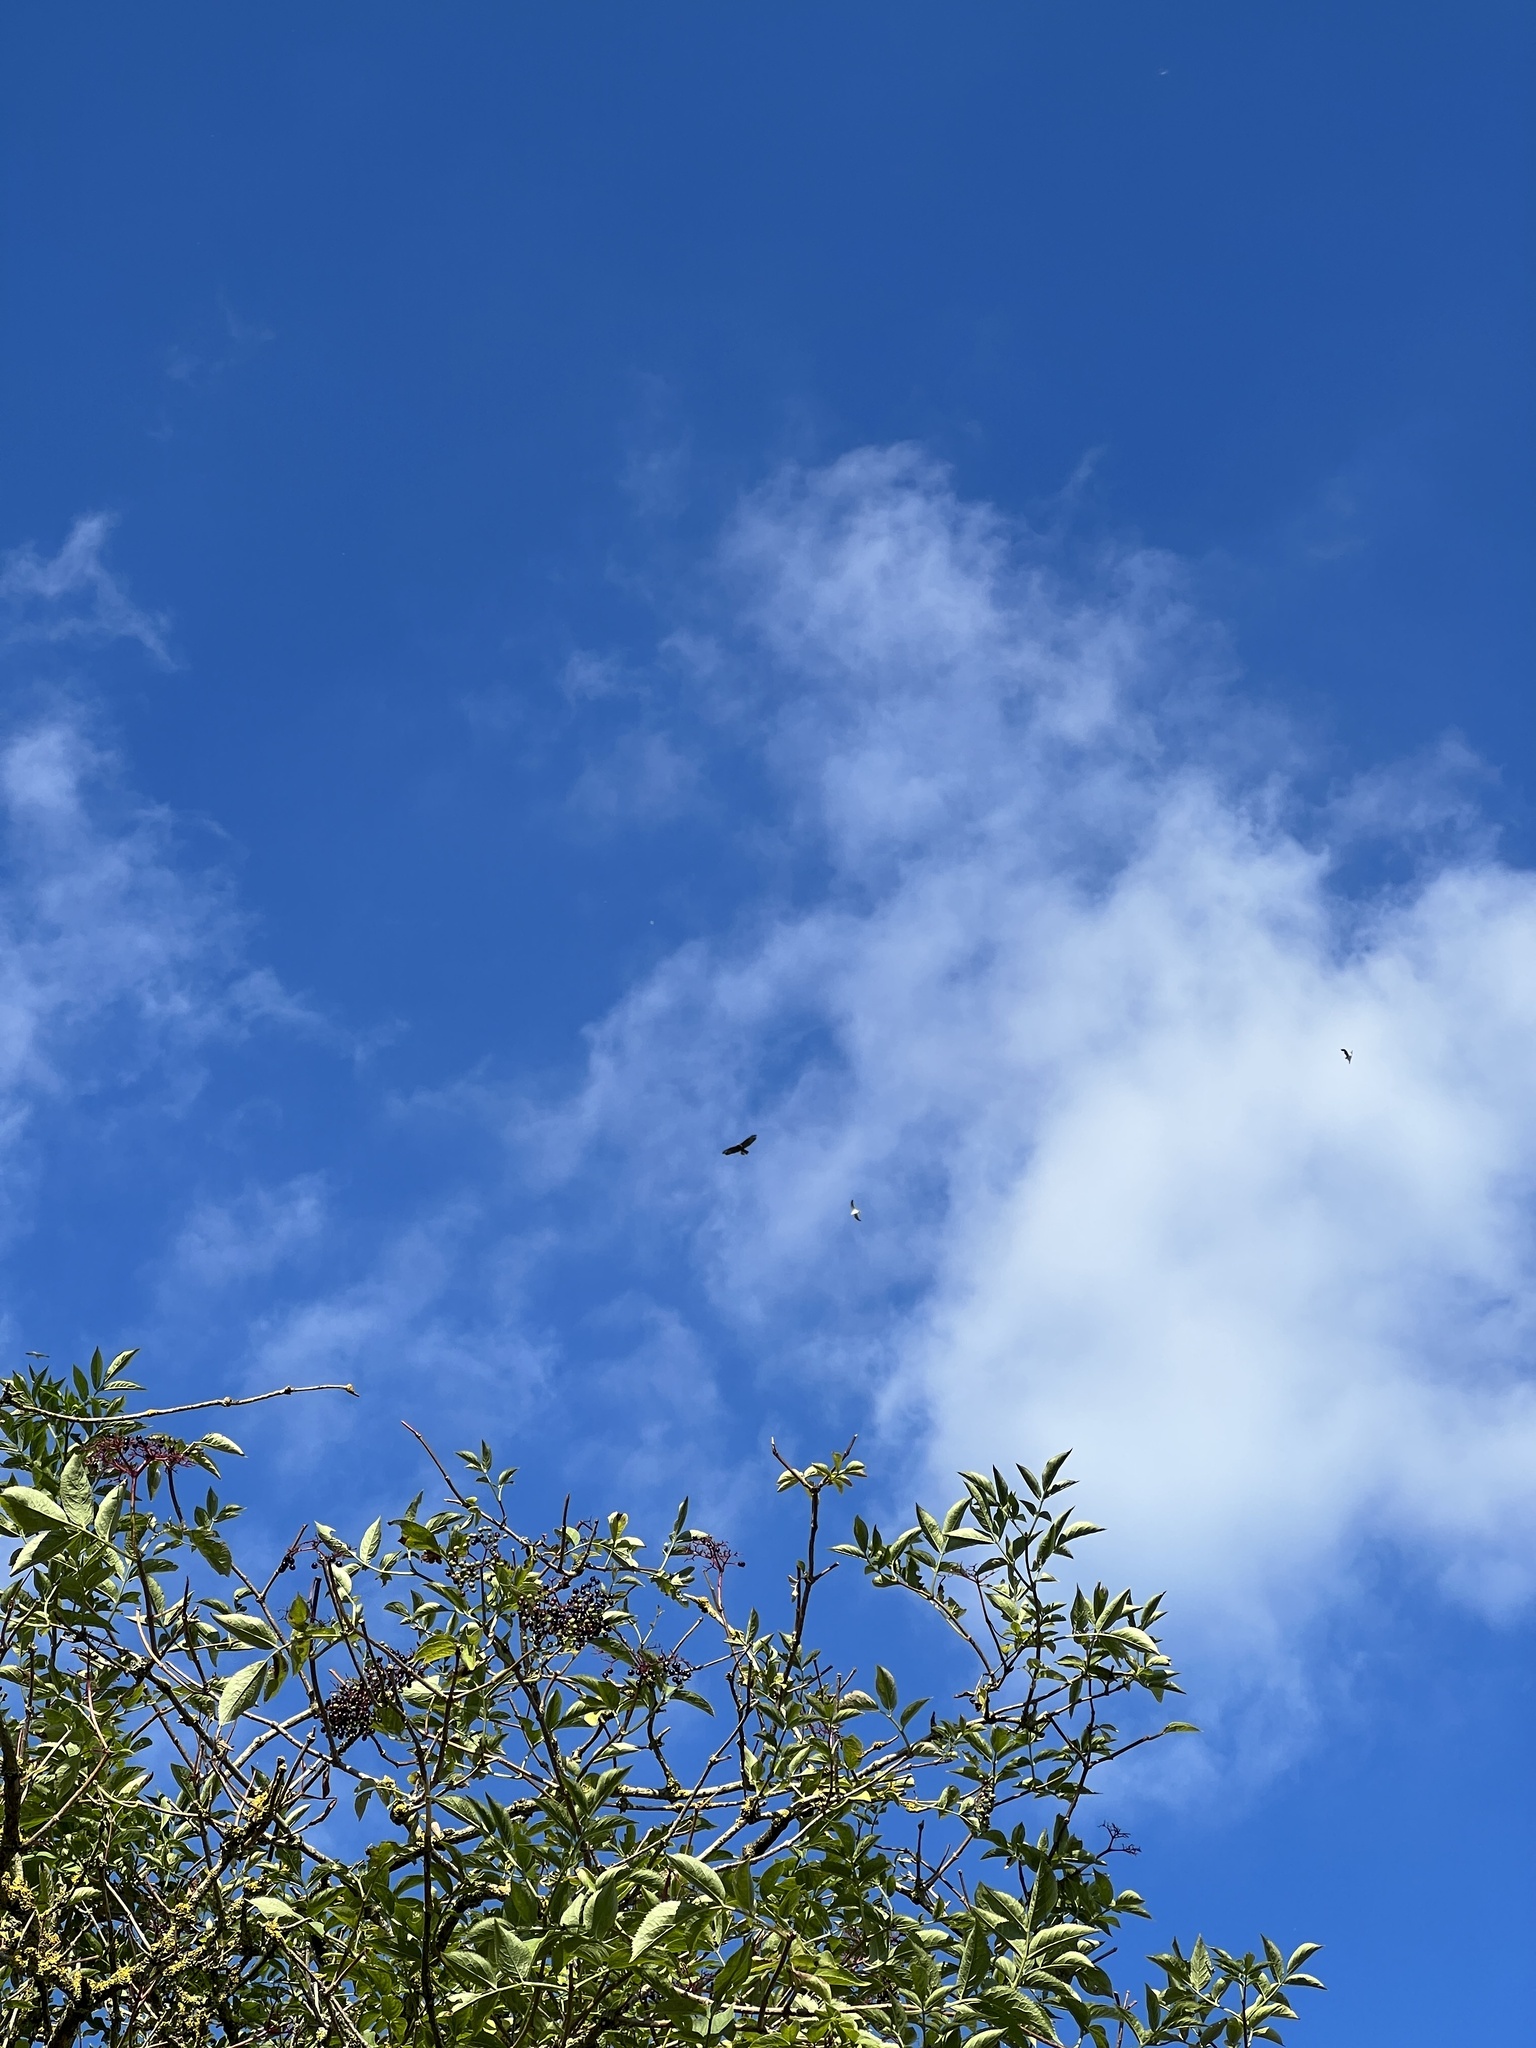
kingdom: Animalia
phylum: Chordata
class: Aves
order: Accipitriformes
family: Accipitridae
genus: Buteo
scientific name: Buteo buteo
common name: Common buzzard
